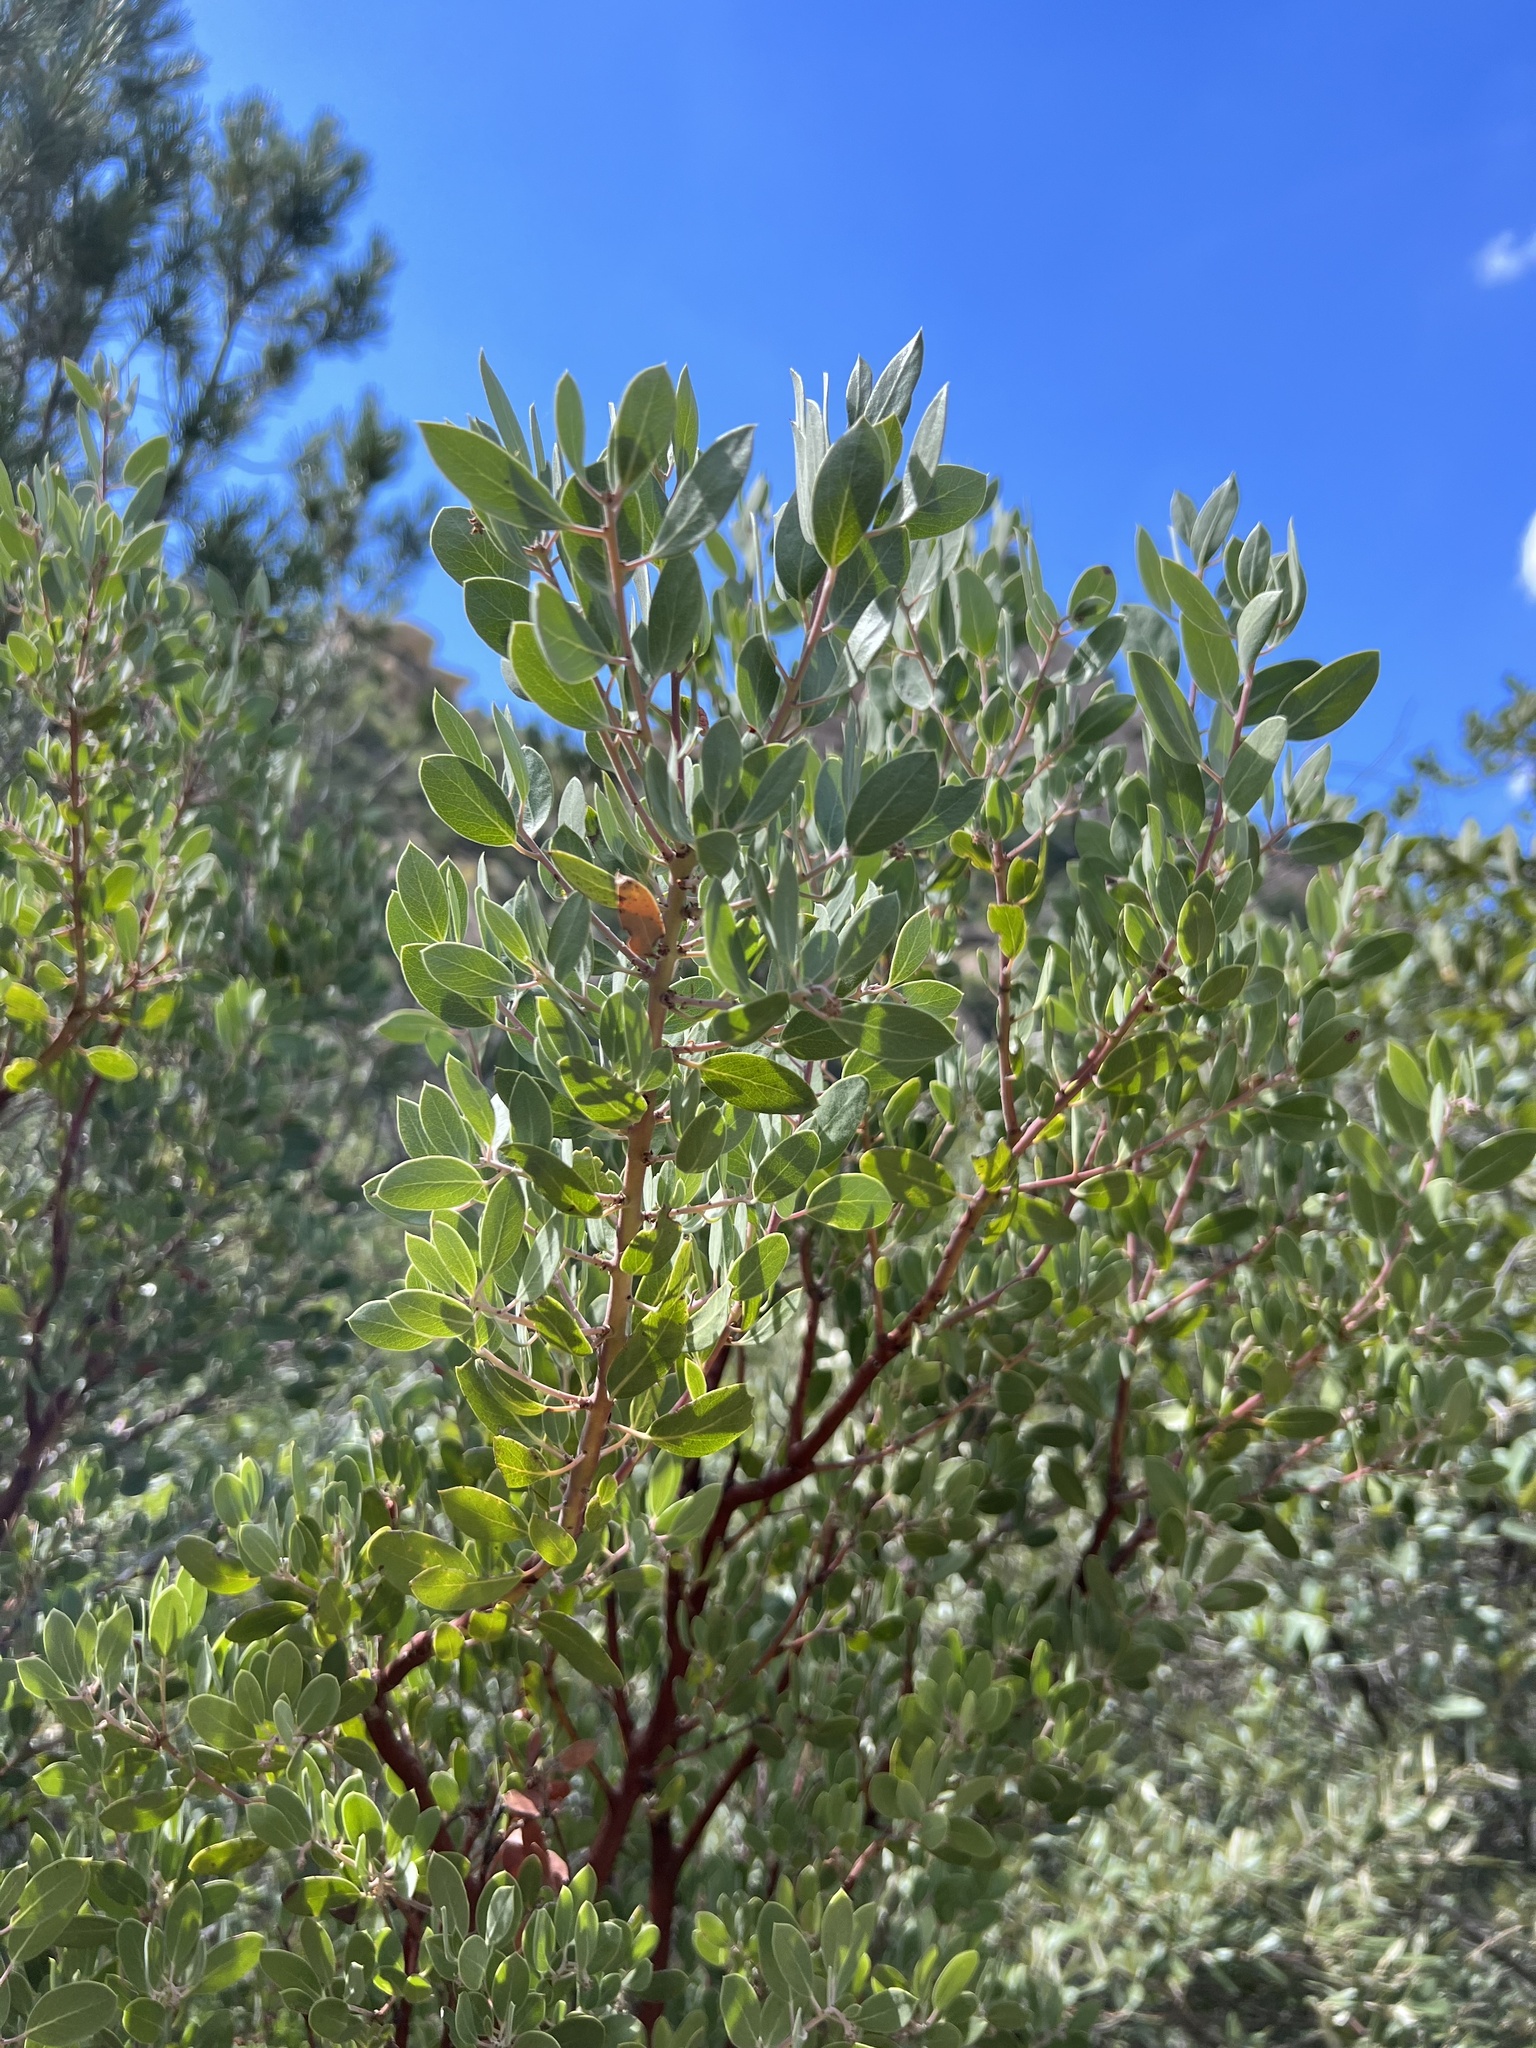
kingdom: Plantae
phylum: Tracheophyta
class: Magnoliopsida
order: Ericales
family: Ericaceae
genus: Arctostaphylos
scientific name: Arctostaphylos pungens
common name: Mexican manzanita
